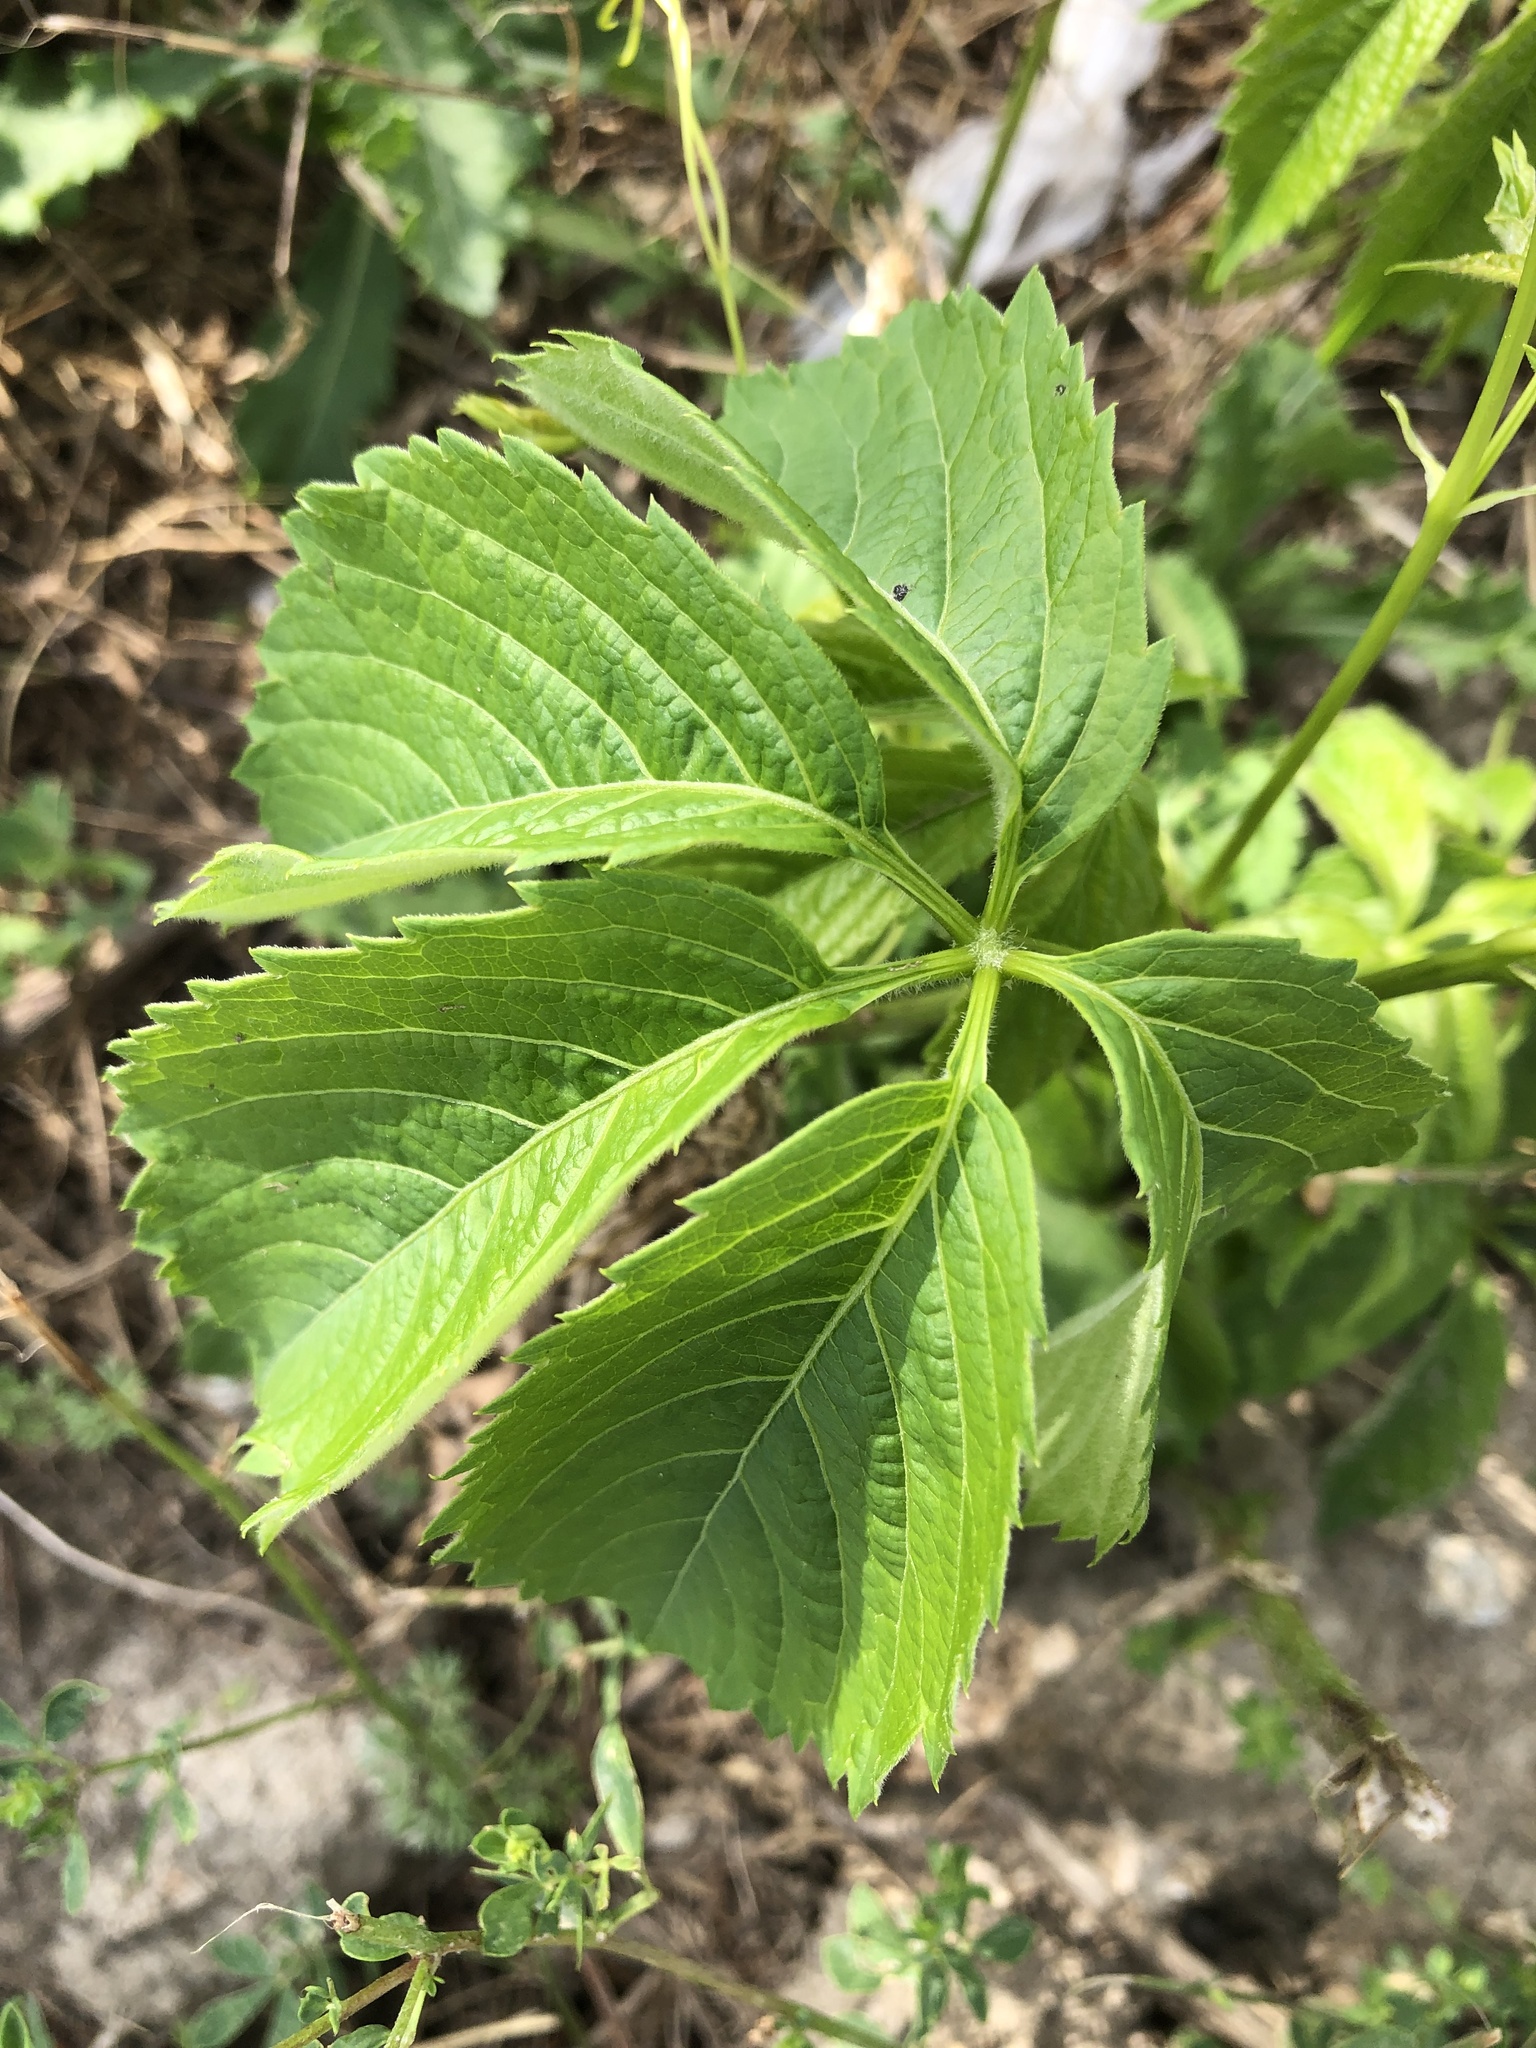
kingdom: Plantae
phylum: Tracheophyta
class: Magnoliopsida
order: Vitales
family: Vitaceae
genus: Parthenocissus
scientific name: Parthenocissus inserta
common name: False virginia-creeper
